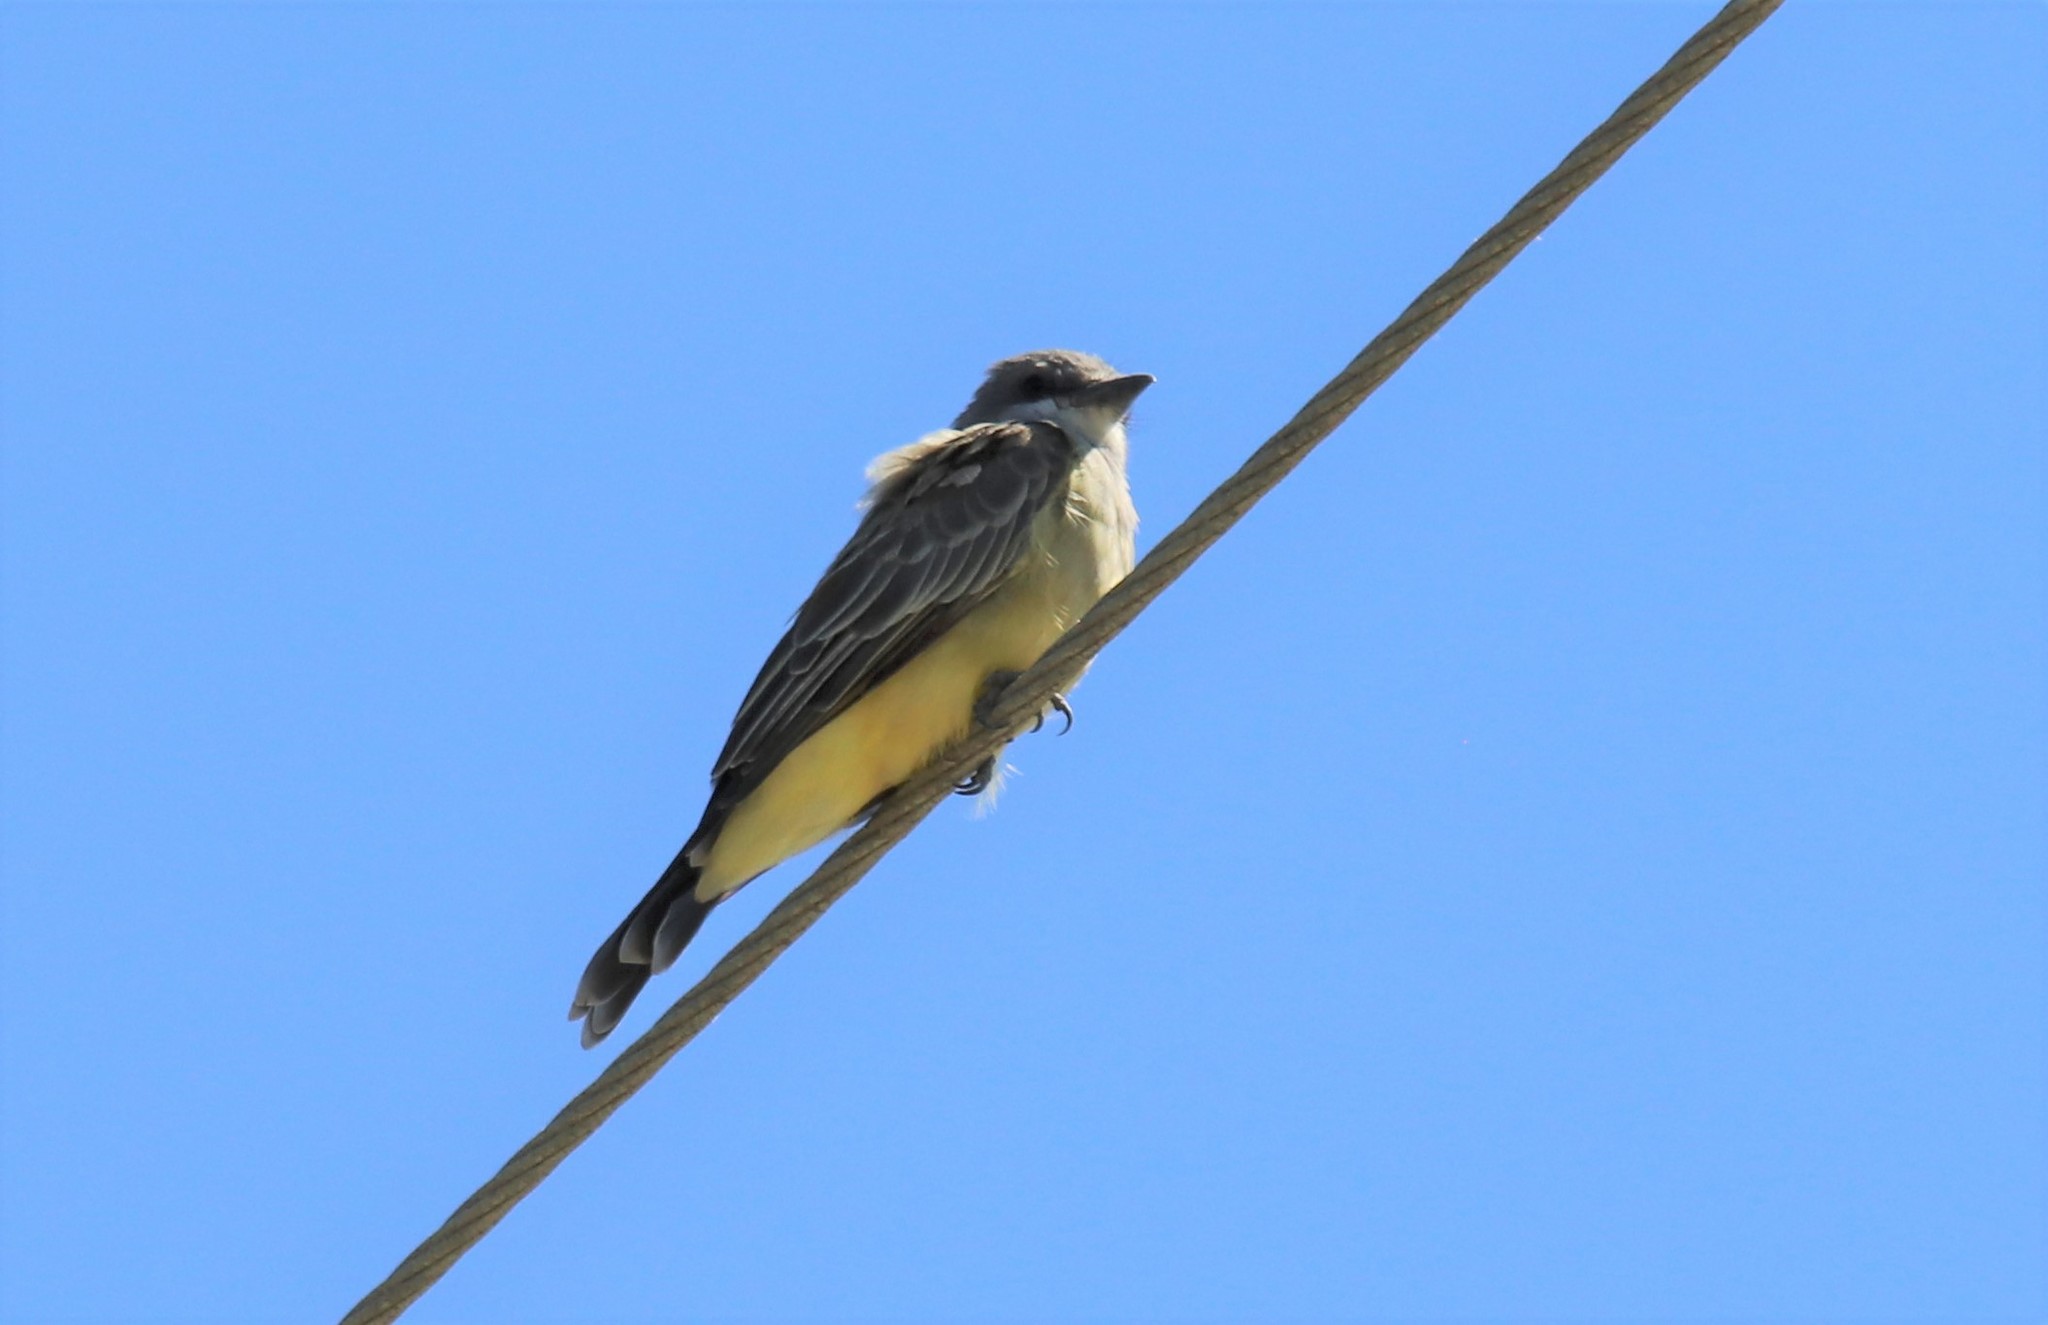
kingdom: Animalia
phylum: Chordata
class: Aves
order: Passeriformes
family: Tyrannidae
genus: Tyrannus
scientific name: Tyrannus vociferans
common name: Cassin's kingbird
